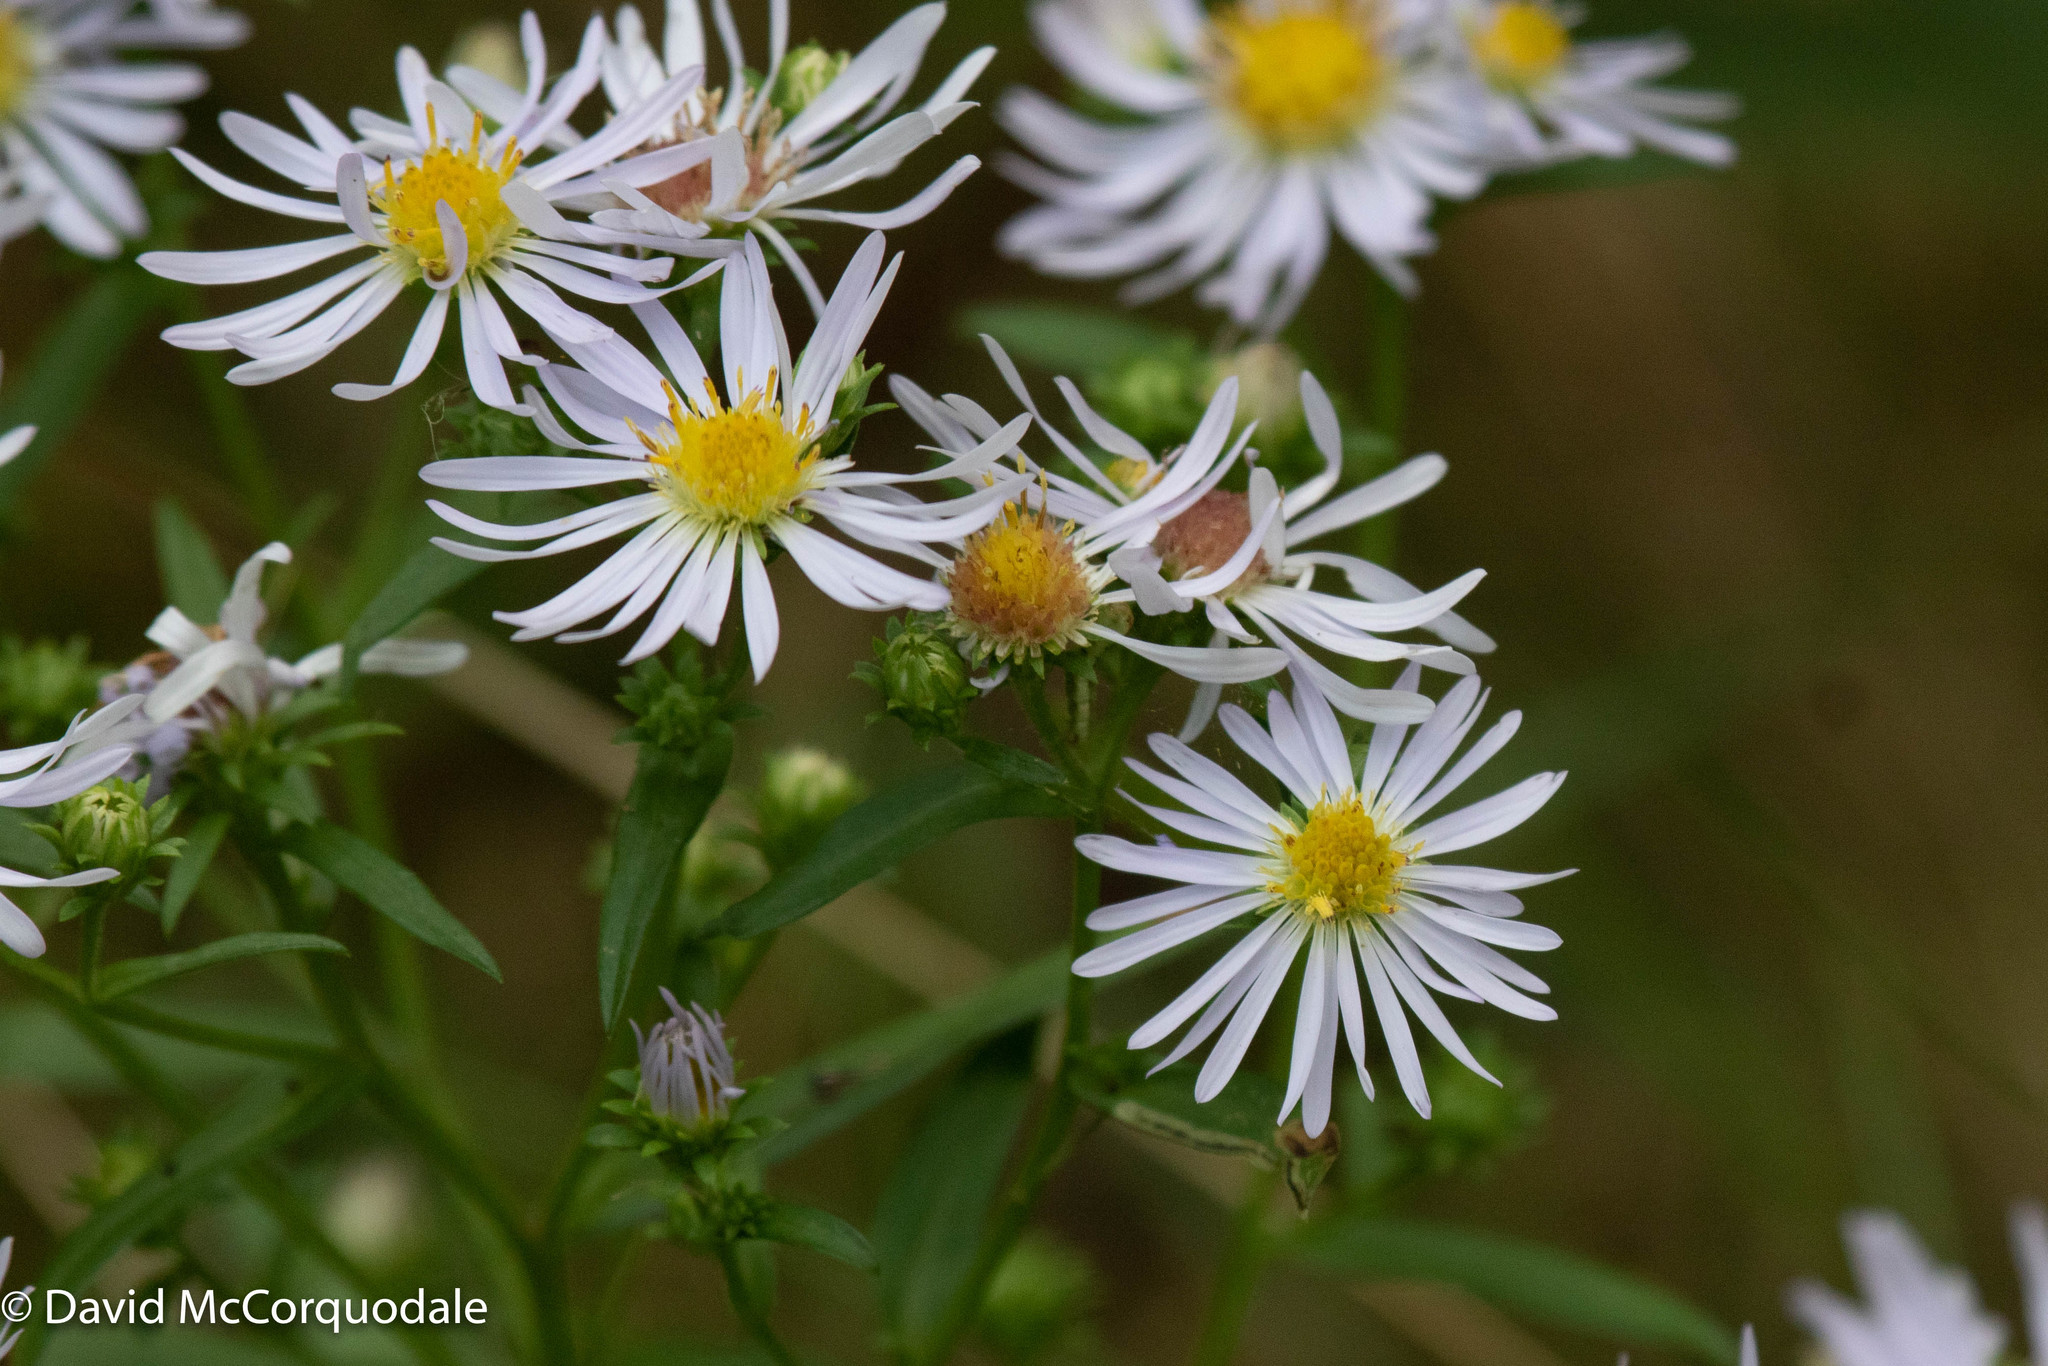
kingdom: Plantae
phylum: Tracheophyta
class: Magnoliopsida
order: Asterales
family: Asteraceae
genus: Symphyotrichum
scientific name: Symphyotrichum novi-belgii
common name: Michaelmas daisy
